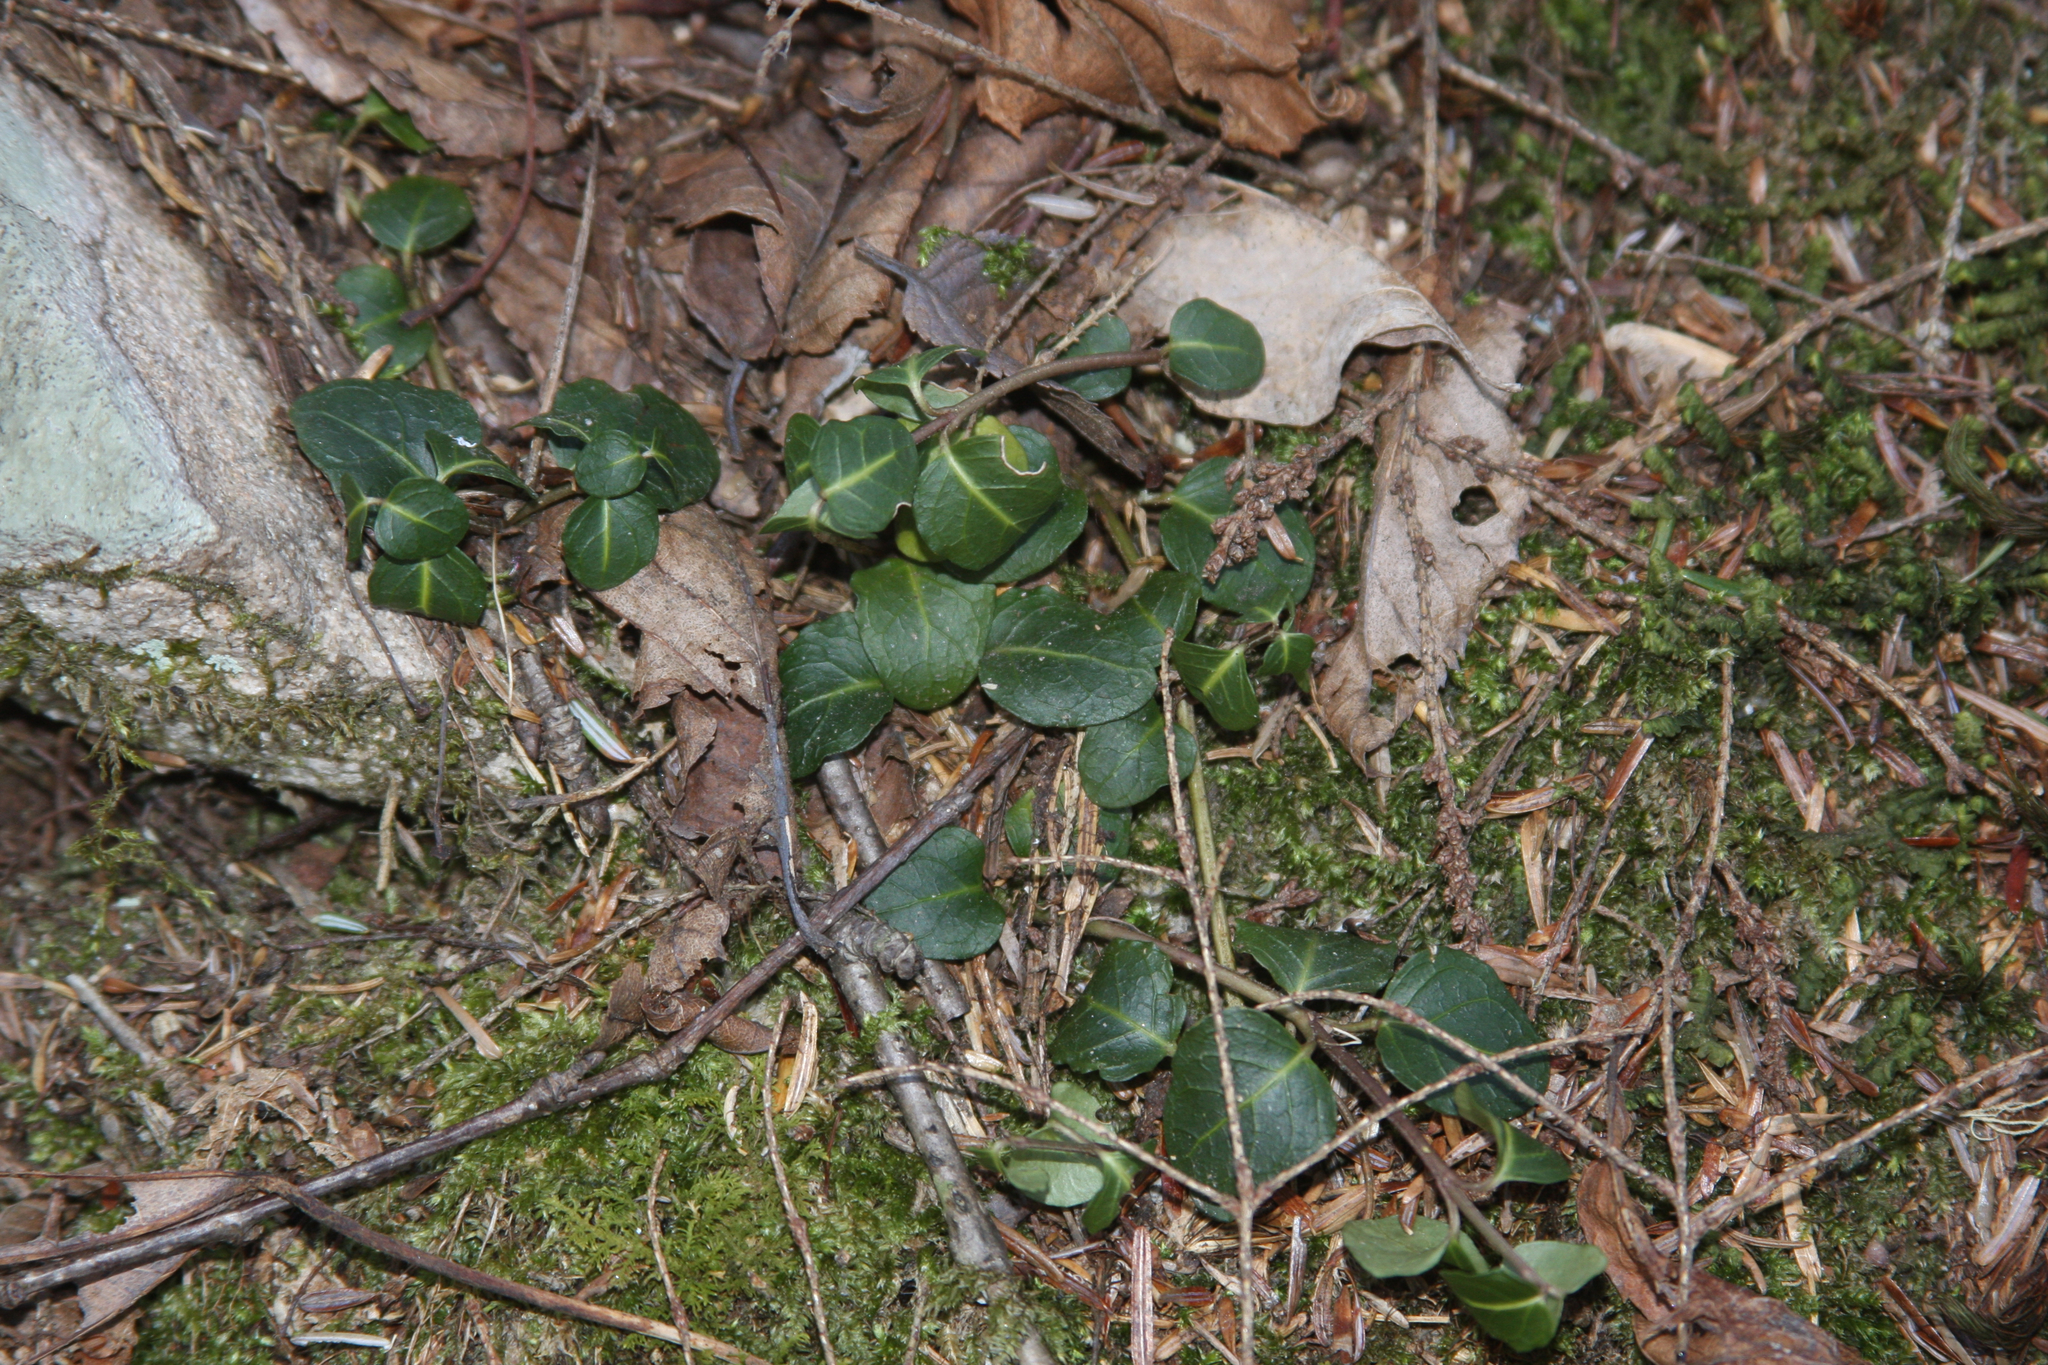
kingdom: Plantae
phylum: Tracheophyta
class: Magnoliopsida
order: Gentianales
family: Rubiaceae
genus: Mitchella
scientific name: Mitchella repens
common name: Partridge-berry
